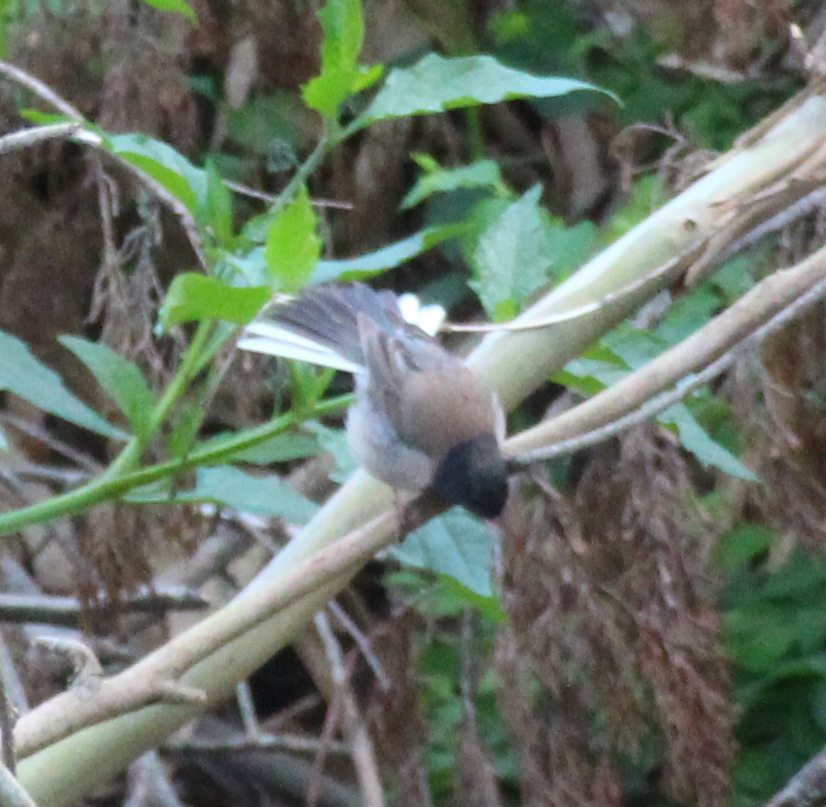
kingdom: Animalia
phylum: Chordata
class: Aves
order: Passeriformes
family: Passerellidae
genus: Junco
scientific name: Junco hyemalis
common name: Dark-eyed junco
